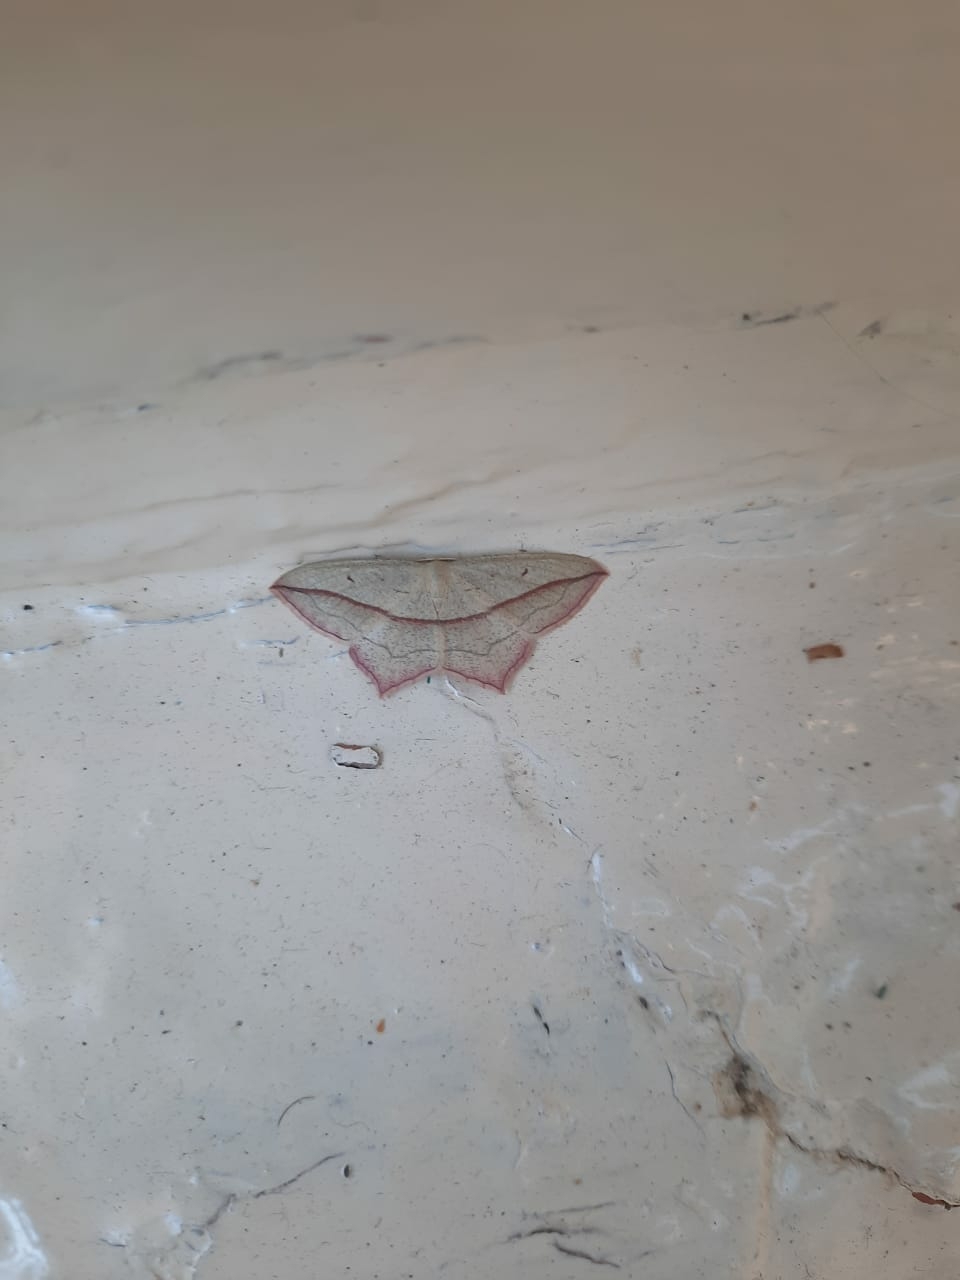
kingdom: Animalia
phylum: Arthropoda
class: Insecta
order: Lepidoptera
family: Geometridae
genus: Timandra
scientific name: Timandra comae
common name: Blood-vein
